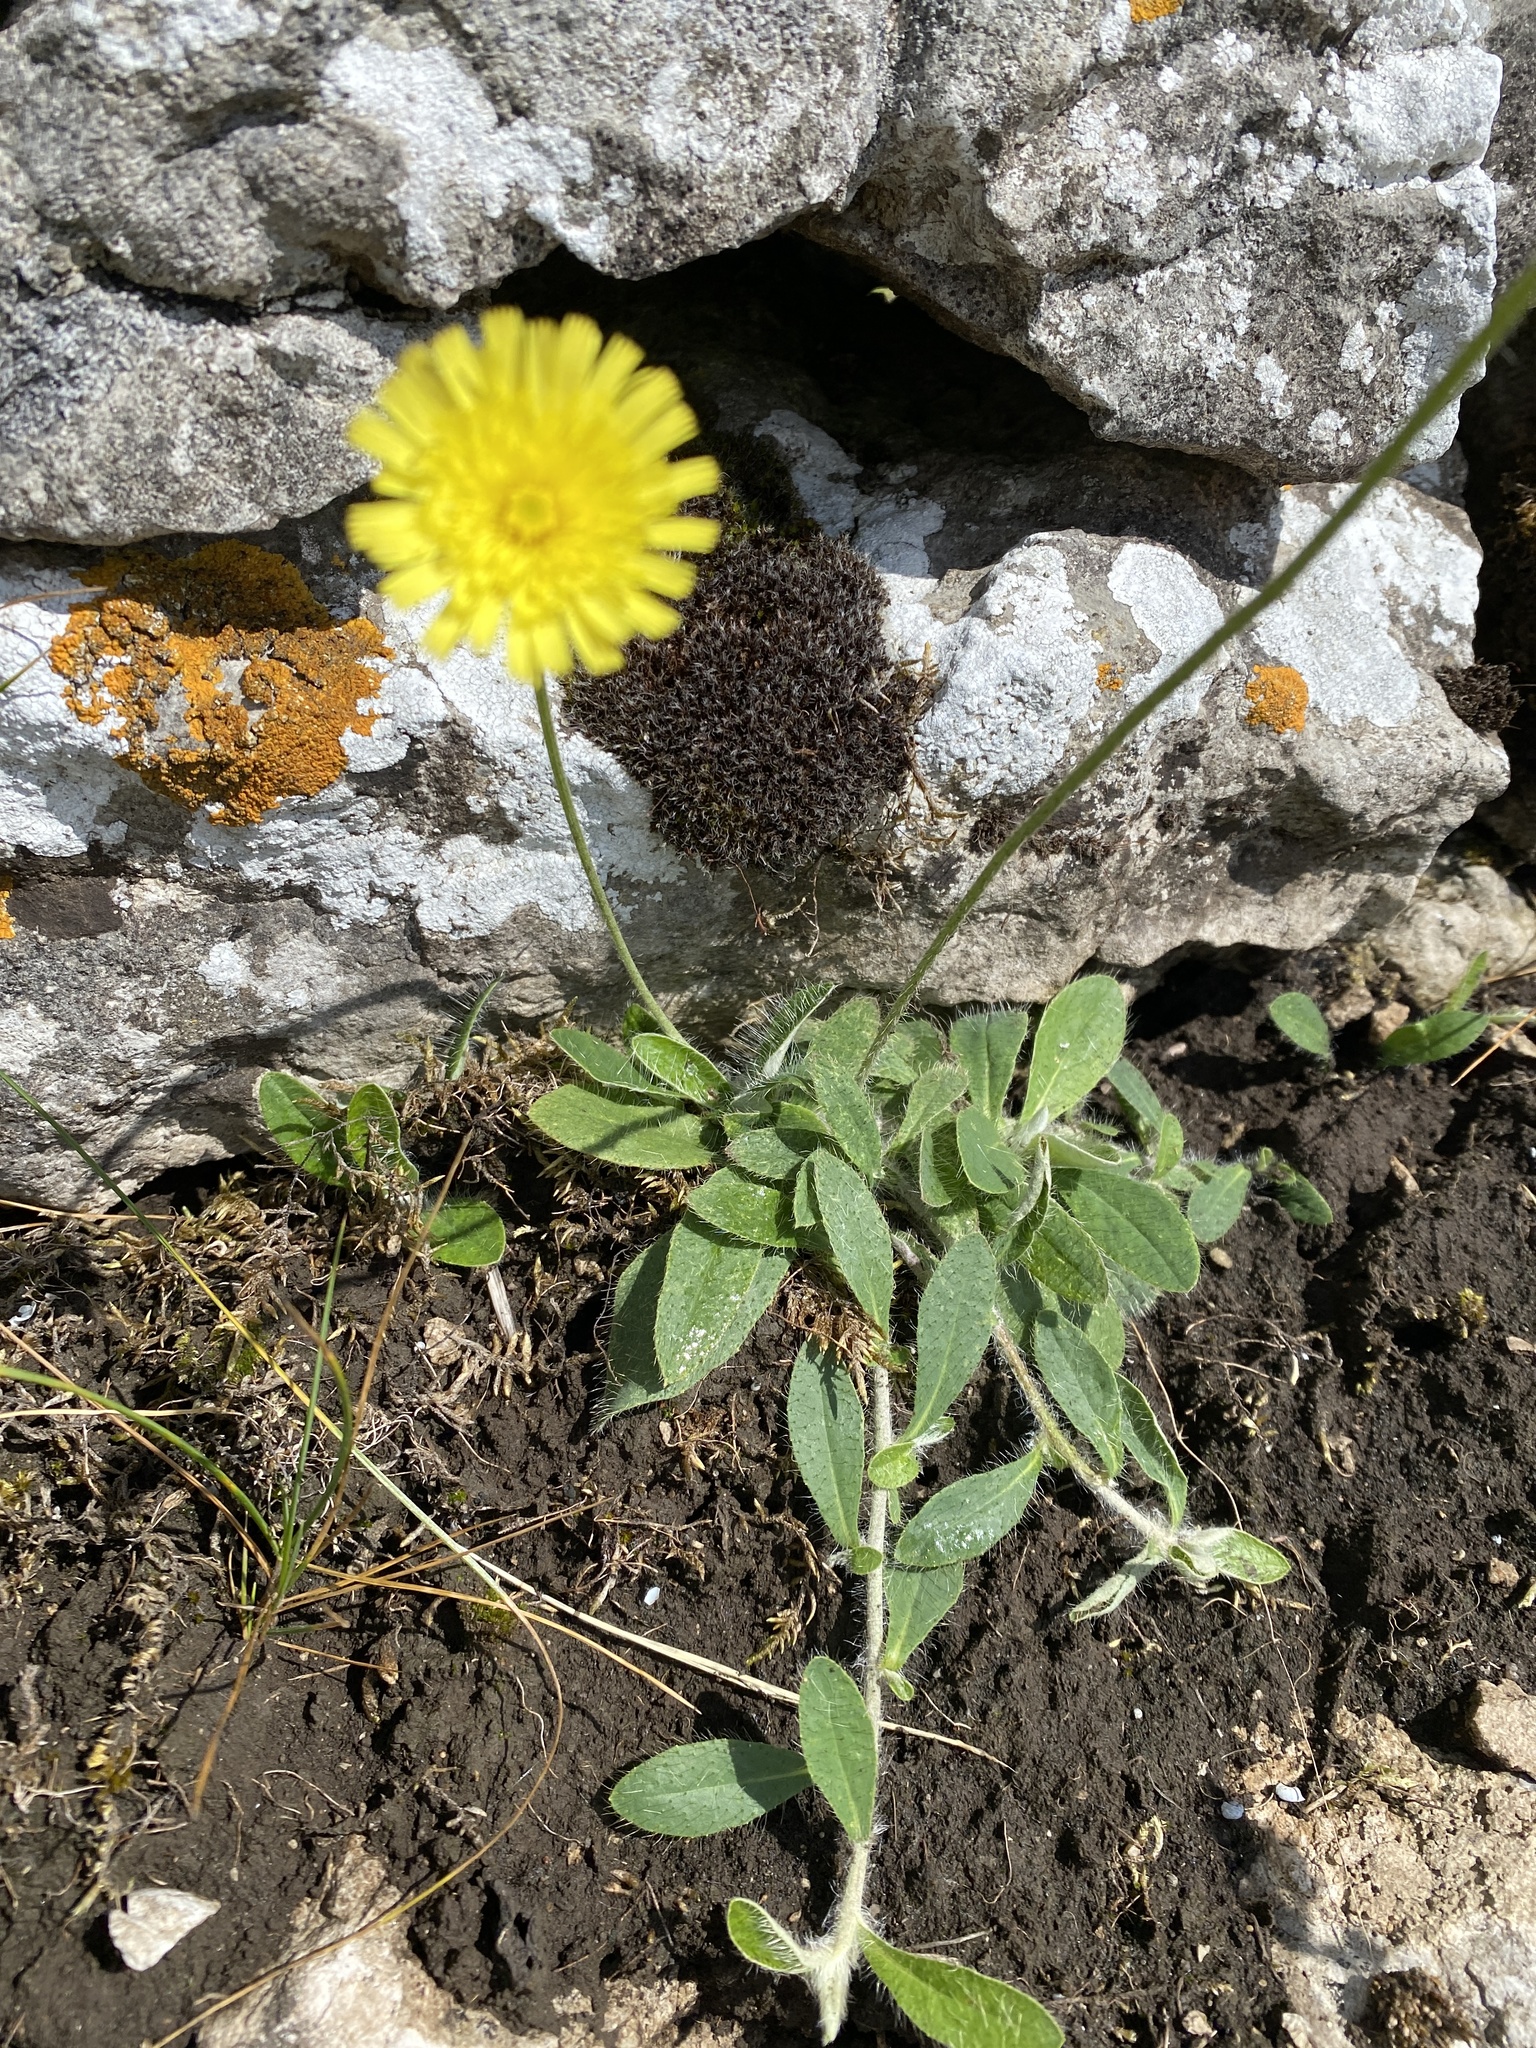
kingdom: Plantae
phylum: Tracheophyta
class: Magnoliopsida
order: Asterales
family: Asteraceae
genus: Pilosella
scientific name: Pilosella officinarum
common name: Mouse-ear hawkweed
